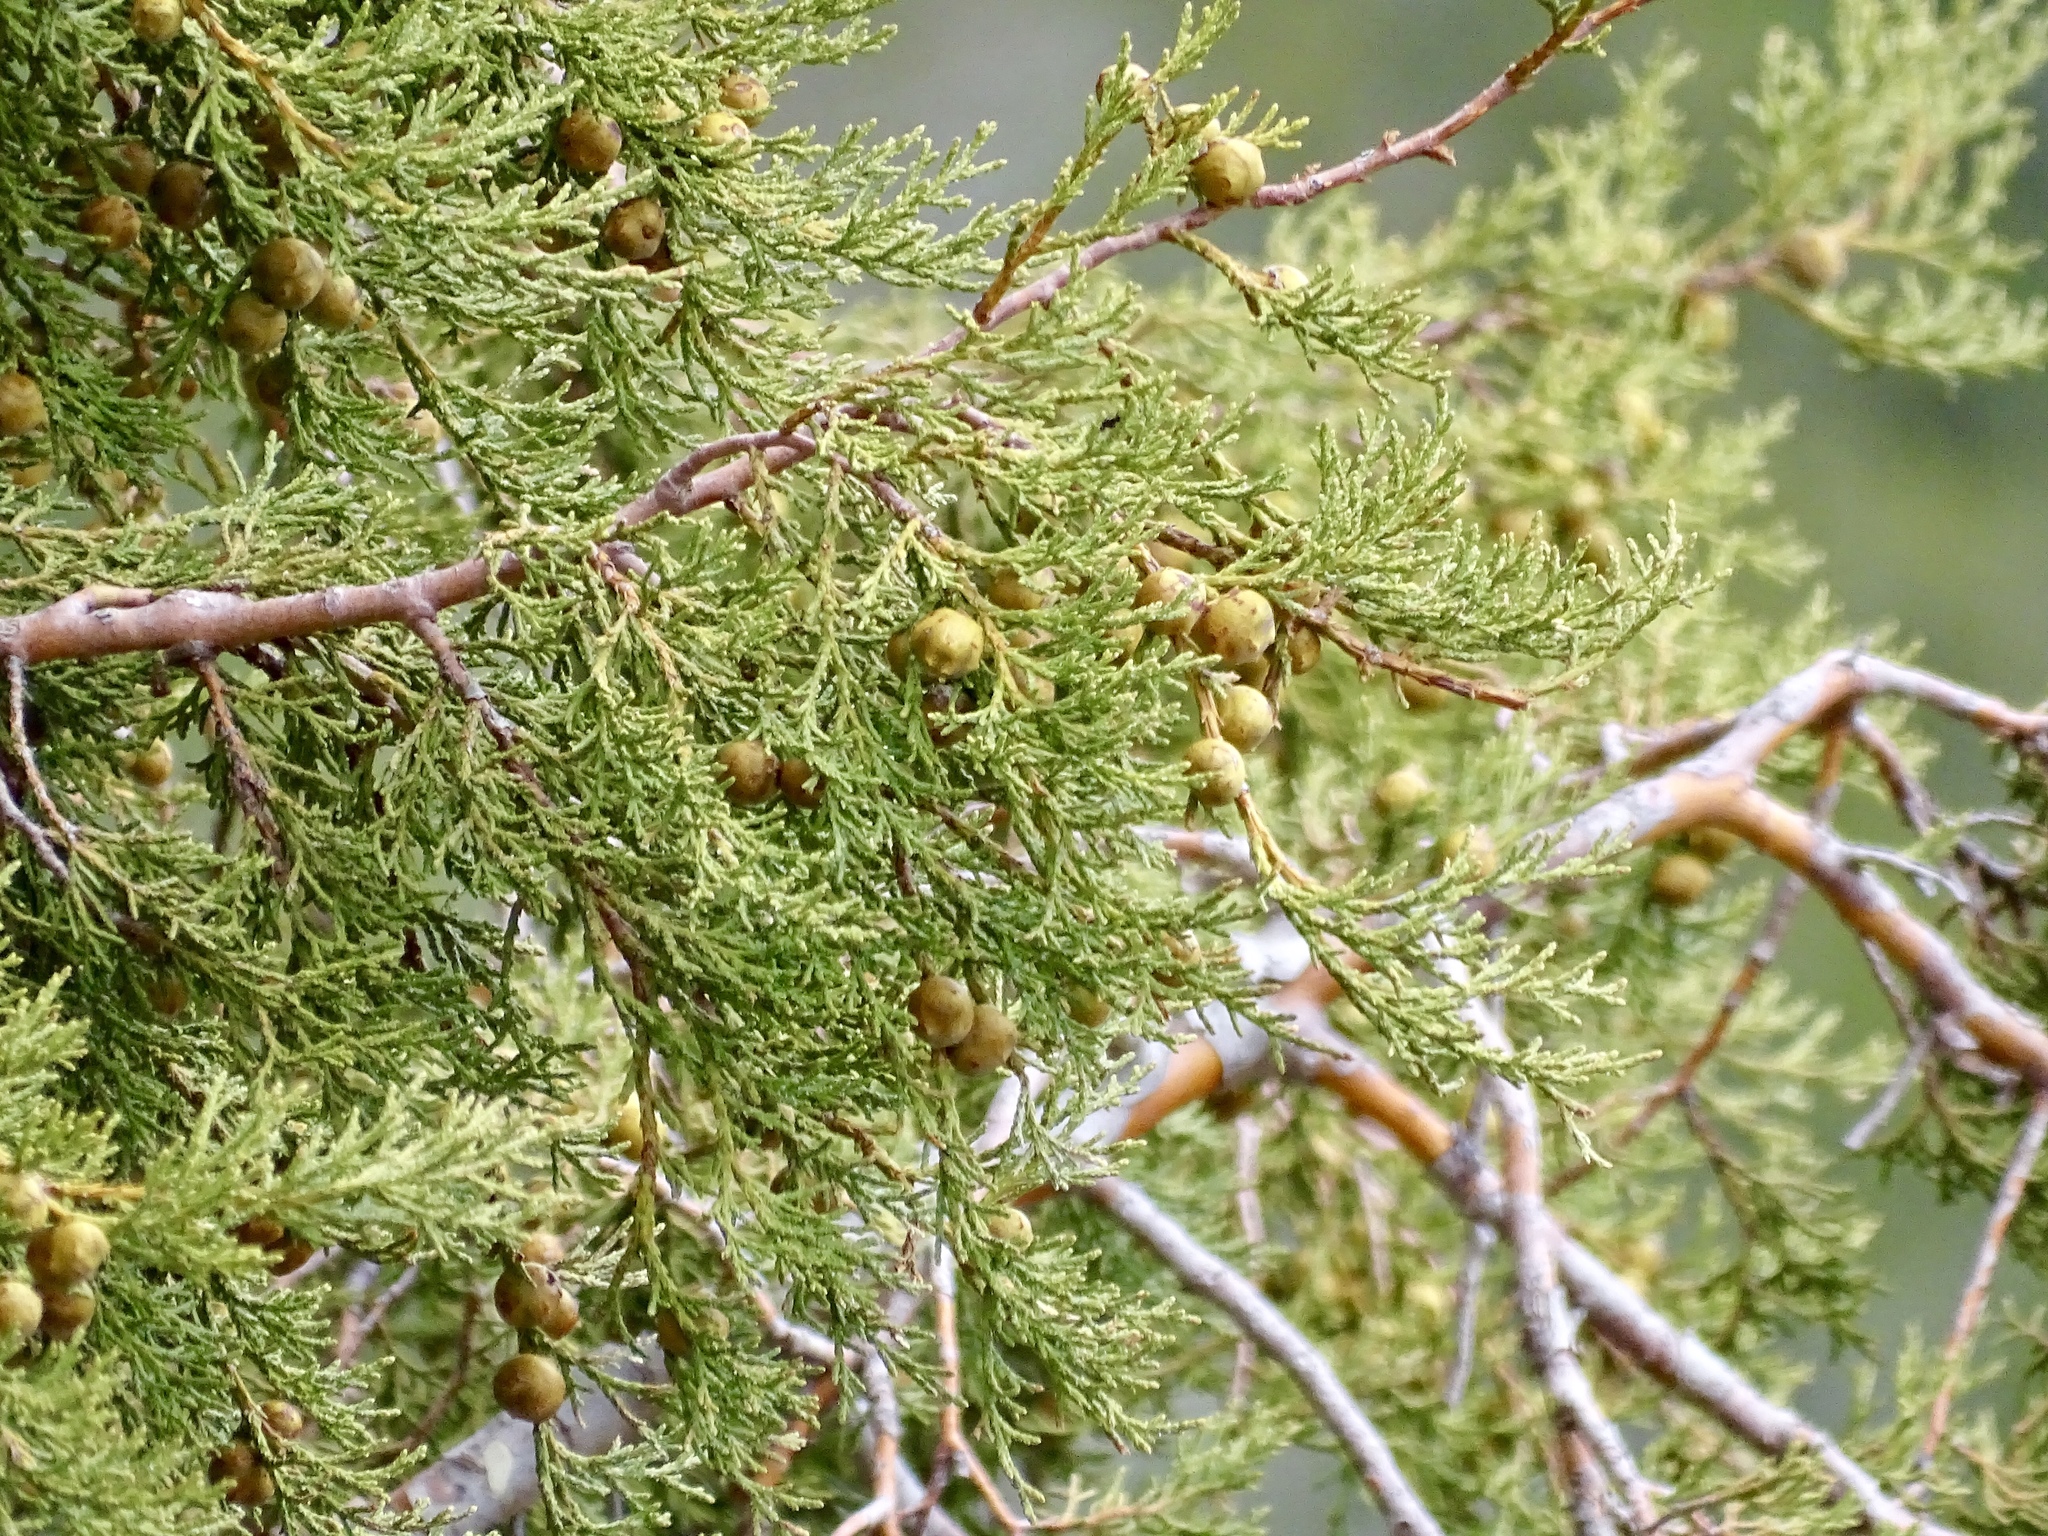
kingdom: Plantae
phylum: Tracheophyta
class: Pinopsida
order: Pinales
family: Cupressaceae
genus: Juniperus
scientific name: Juniperus deppeana
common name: Alligator juniper
